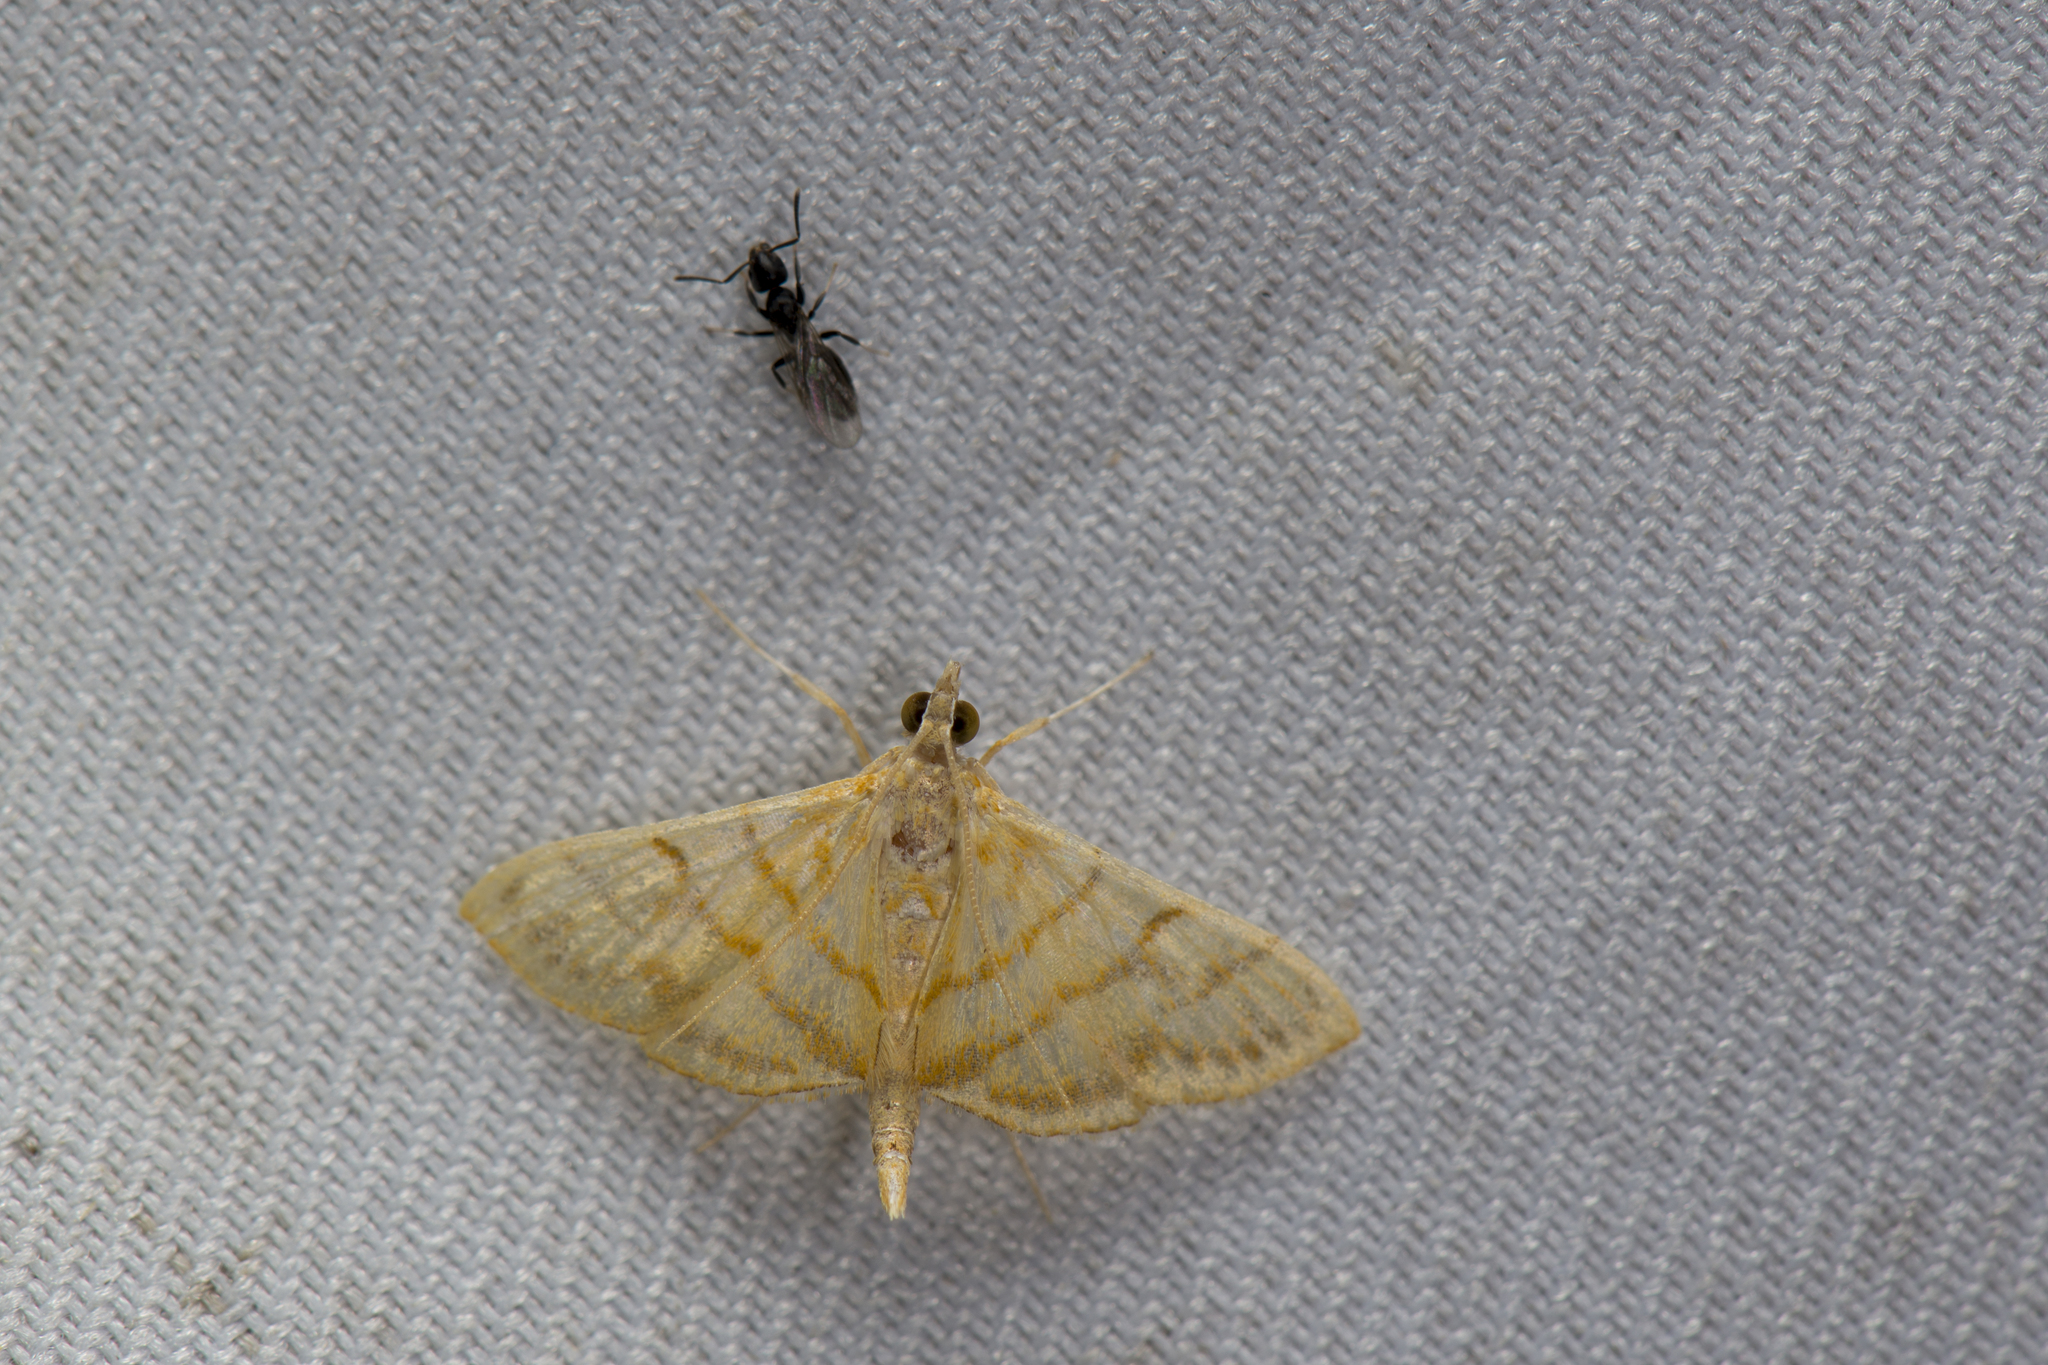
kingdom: Animalia
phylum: Arthropoda
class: Insecta
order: Lepidoptera
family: Crambidae
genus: Pagyda
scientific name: Pagyda botydalis
